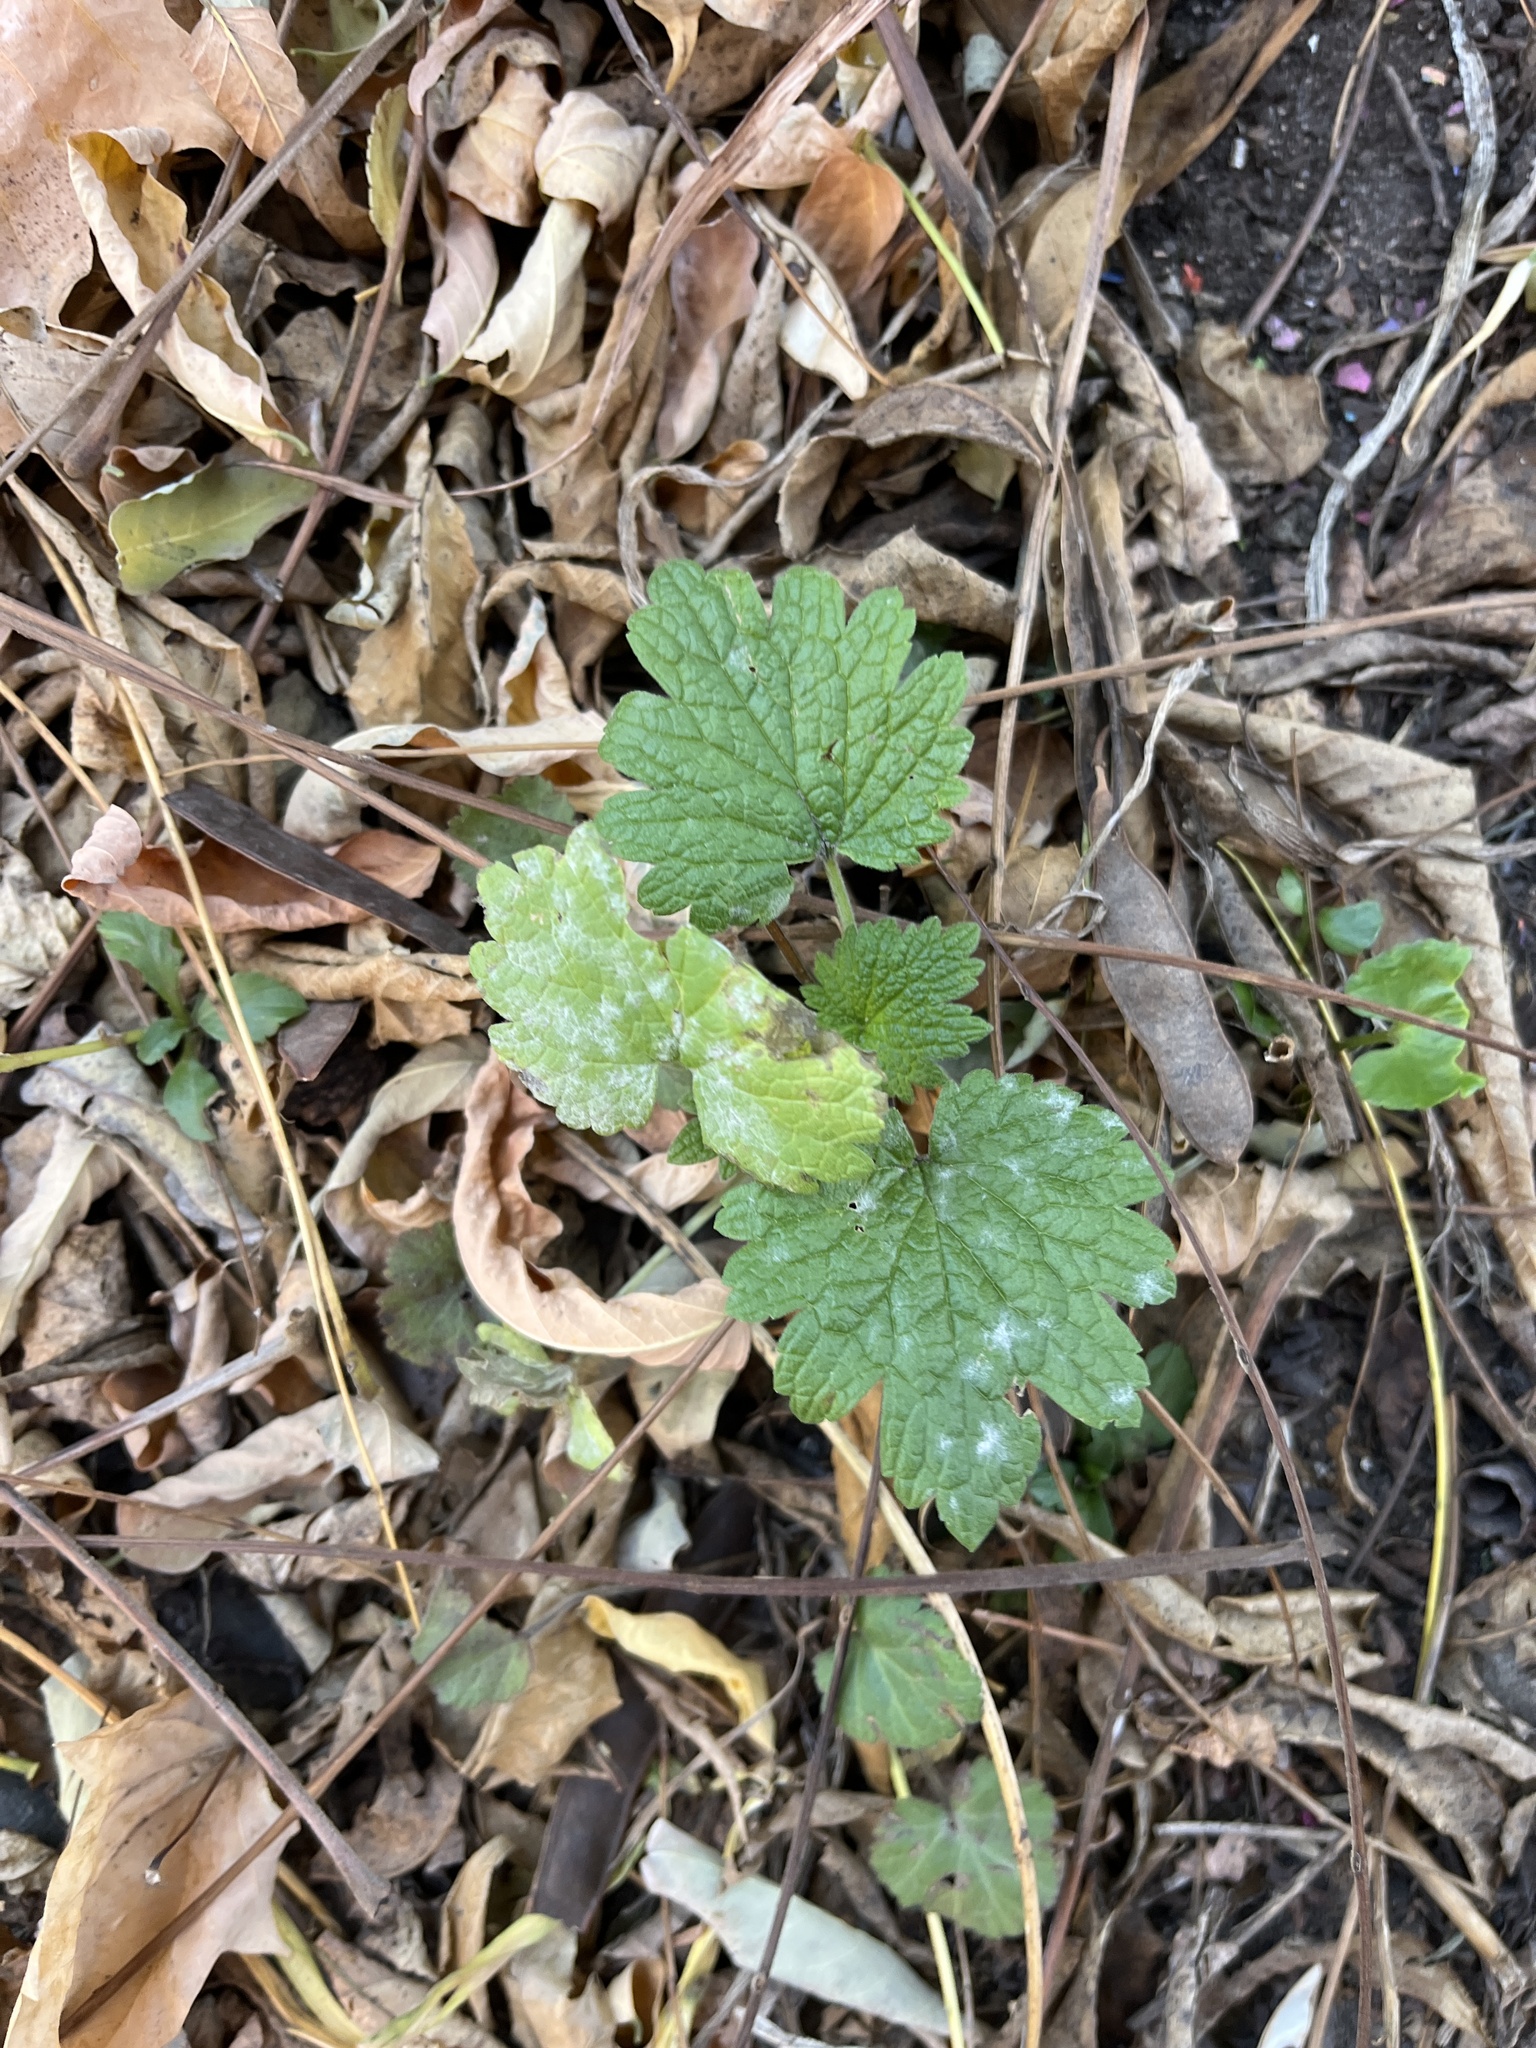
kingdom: Plantae
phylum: Tracheophyta
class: Magnoliopsida
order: Lamiales
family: Lamiaceae
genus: Leonurus
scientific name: Leonurus cardiaca
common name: Motherwort
